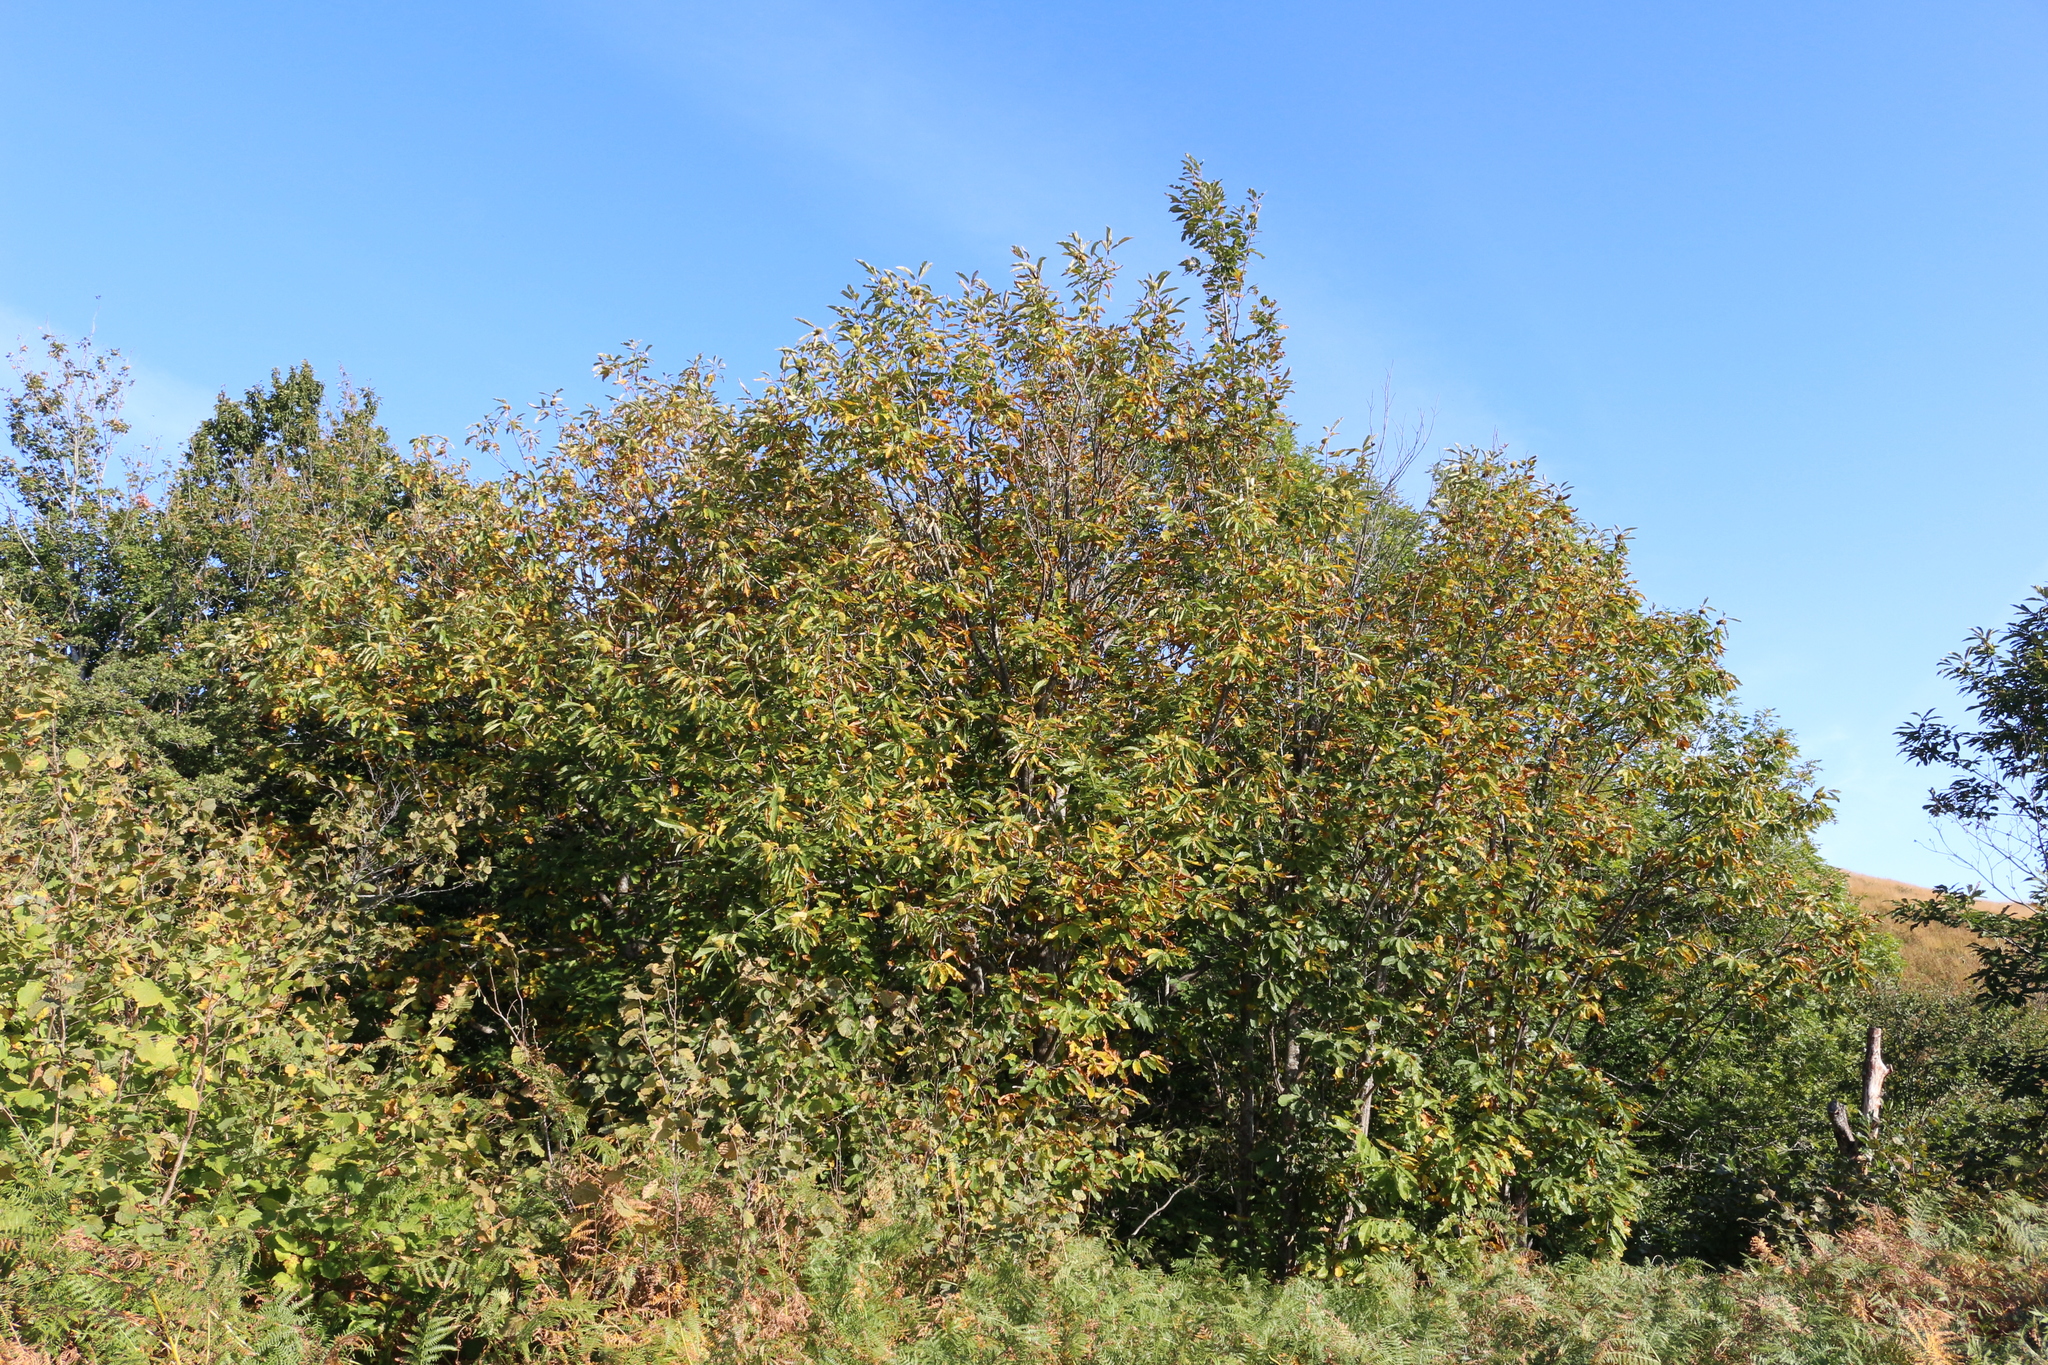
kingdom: Plantae
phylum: Tracheophyta
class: Magnoliopsida
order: Fagales
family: Fagaceae
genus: Castanea
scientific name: Castanea sativa
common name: Sweet chestnut
